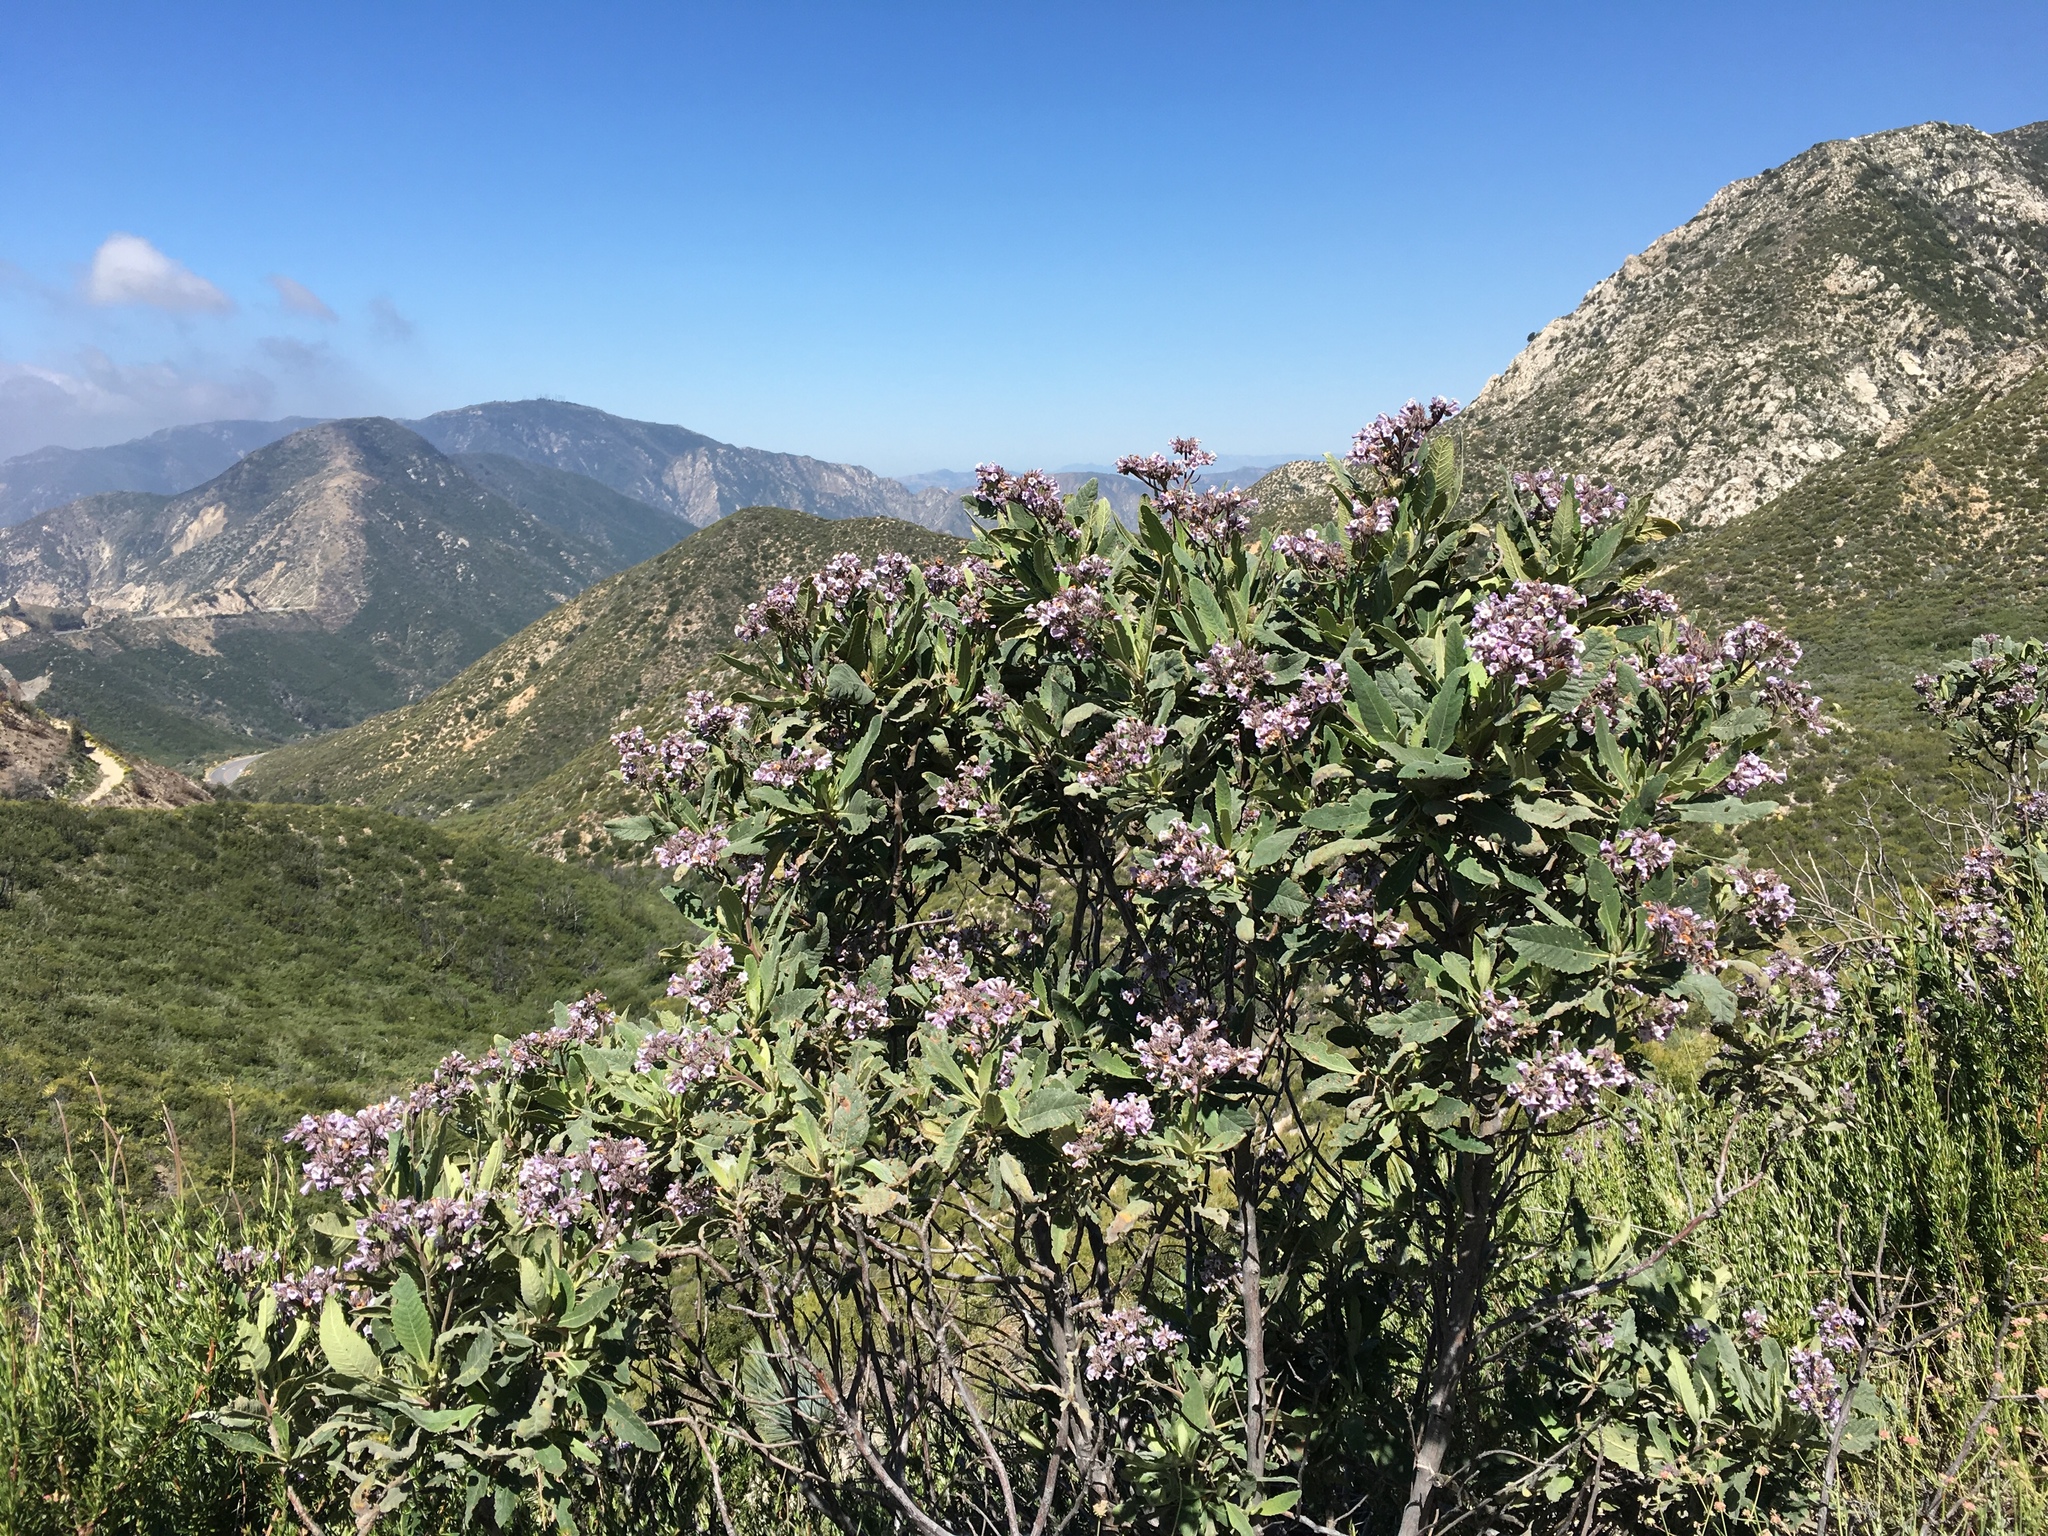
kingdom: Plantae
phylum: Tracheophyta
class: Magnoliopsida
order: Boraginales
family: Namaceae
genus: Eriodictyon
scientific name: Eriodictyon crassifolium
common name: Thick-leaf yerba-santa
